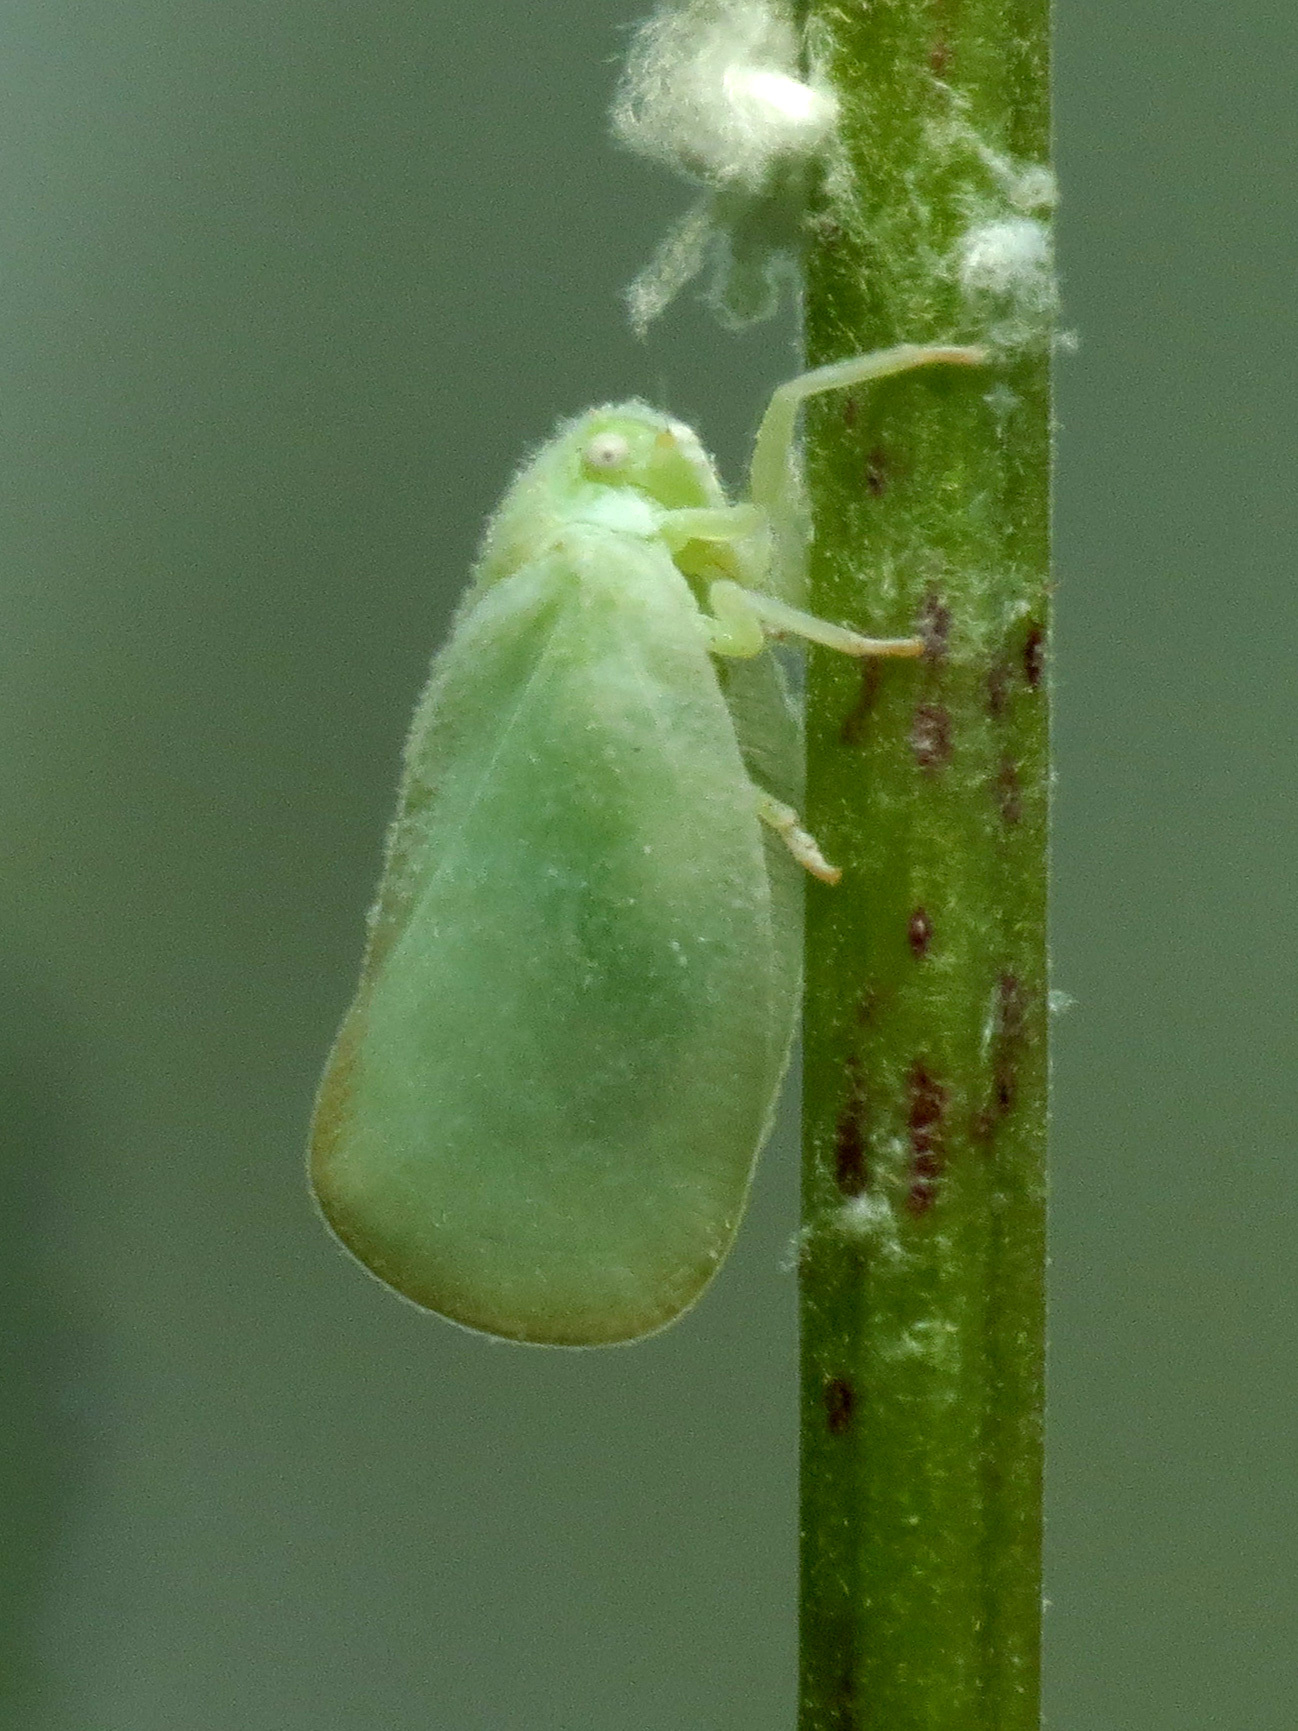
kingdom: Animalia
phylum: Arthropoda
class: Insecta
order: Hemiptera
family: Flatidae
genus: Ormenoides
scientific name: Ormenoides venusta
